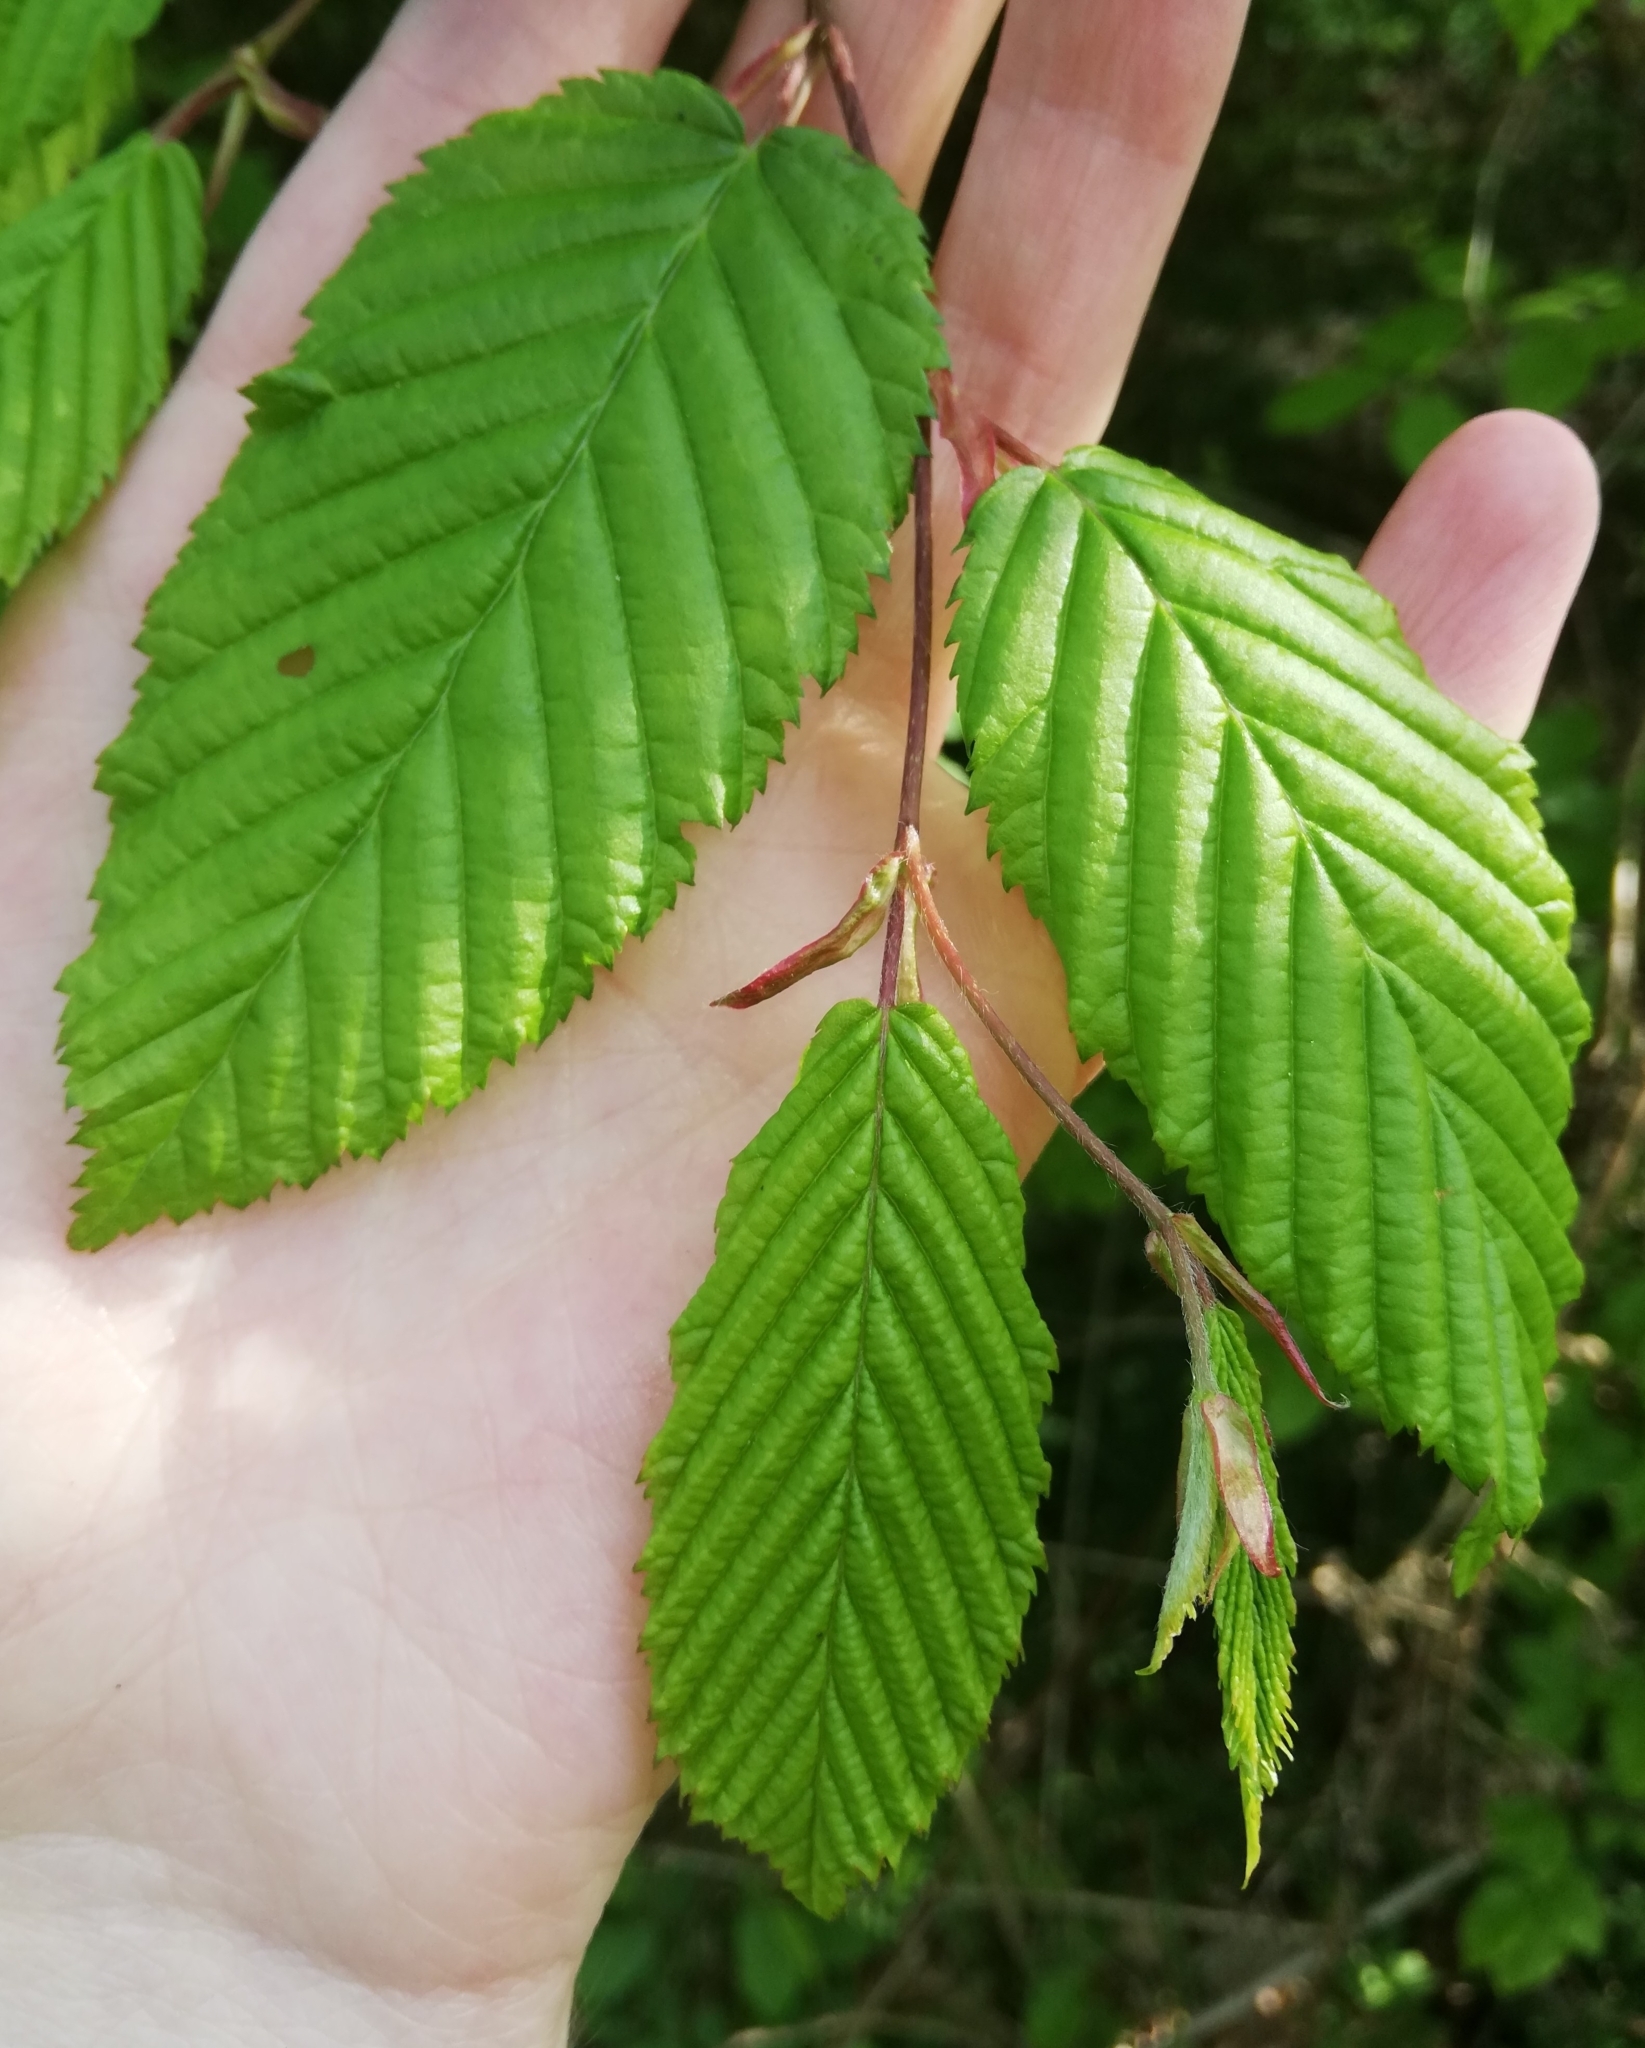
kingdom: Plantae
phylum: Tracheophyta
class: Magnoliopsida
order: Fagales
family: Betulaceae
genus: Carpinus
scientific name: Carpinus betulus
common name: Hornbeam
